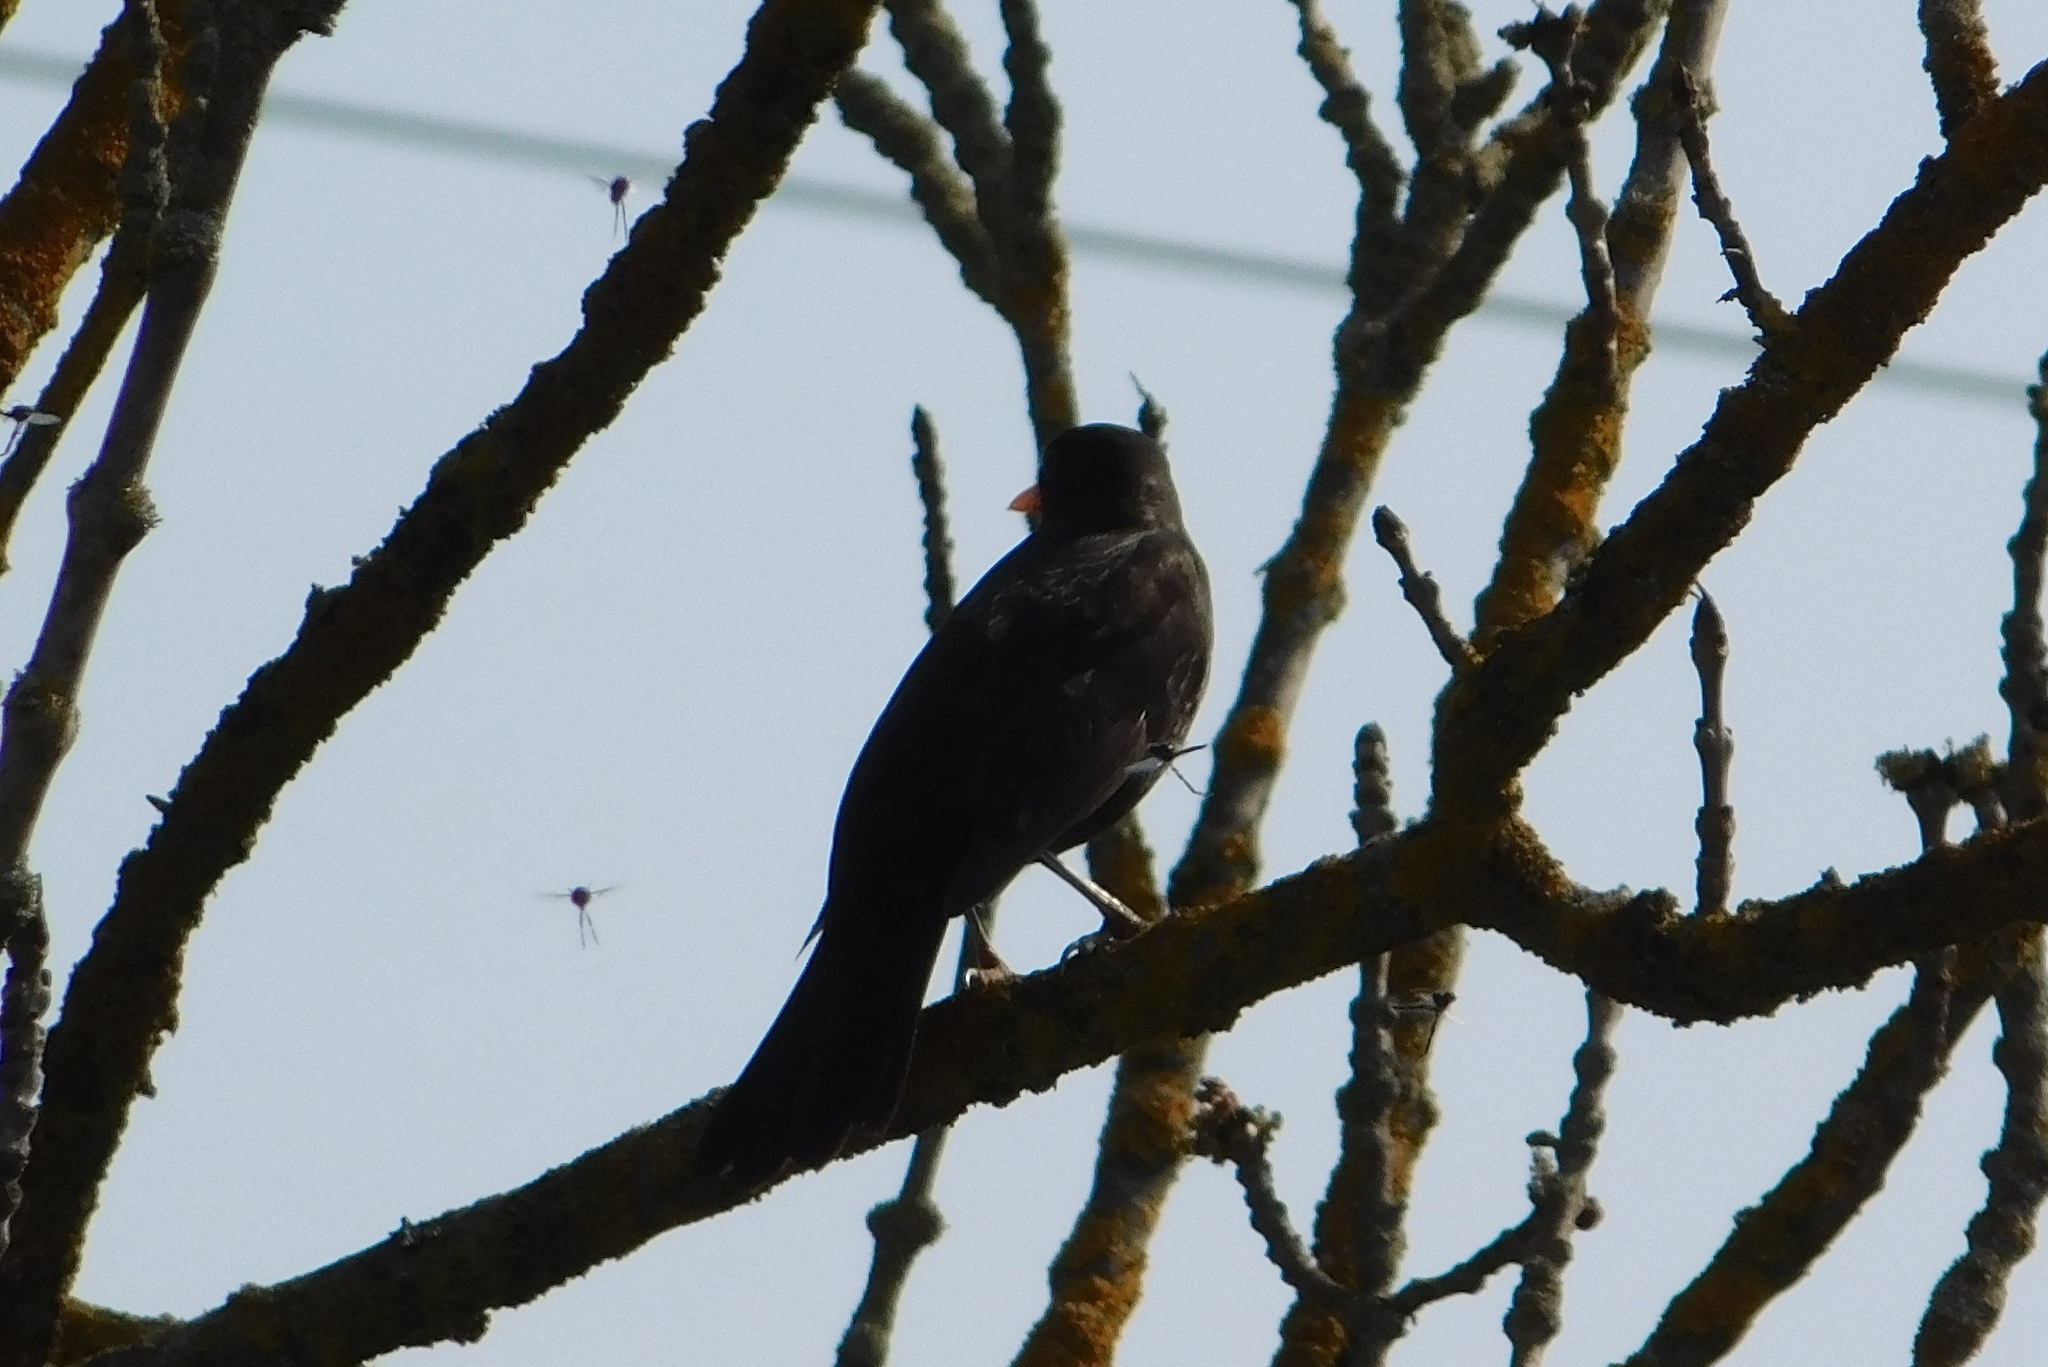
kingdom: Animalia
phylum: Chordata
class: Aves
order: Passeriformes
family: Turdidae
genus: Turdus
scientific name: Turdus merula
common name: Common blackbird
